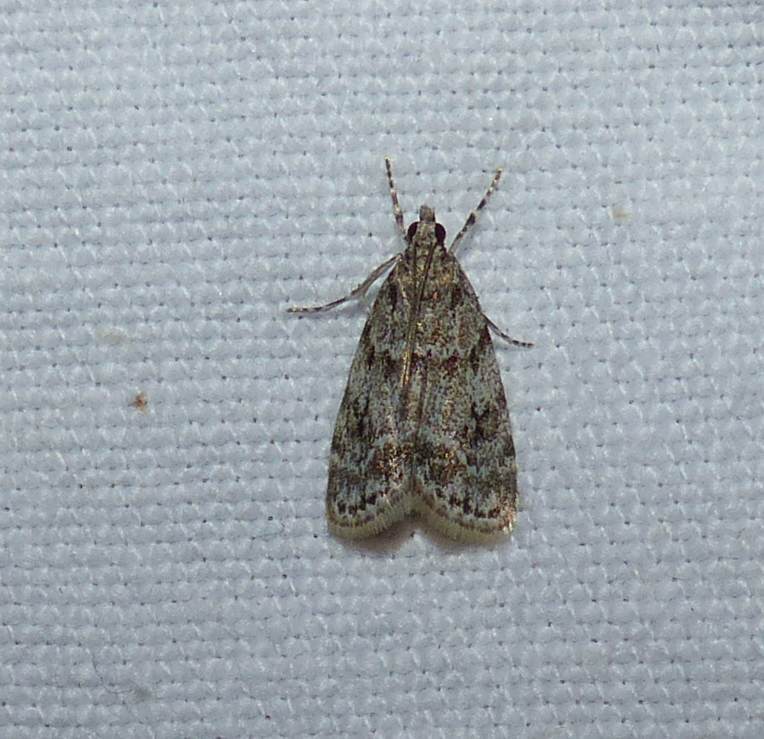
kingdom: Animalia
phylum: Arthropoda
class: Insecta
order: Lepidoptera
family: Crambidae
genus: Scoparia
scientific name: Scoparia biplagialis
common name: Double-striped scoparia moth
